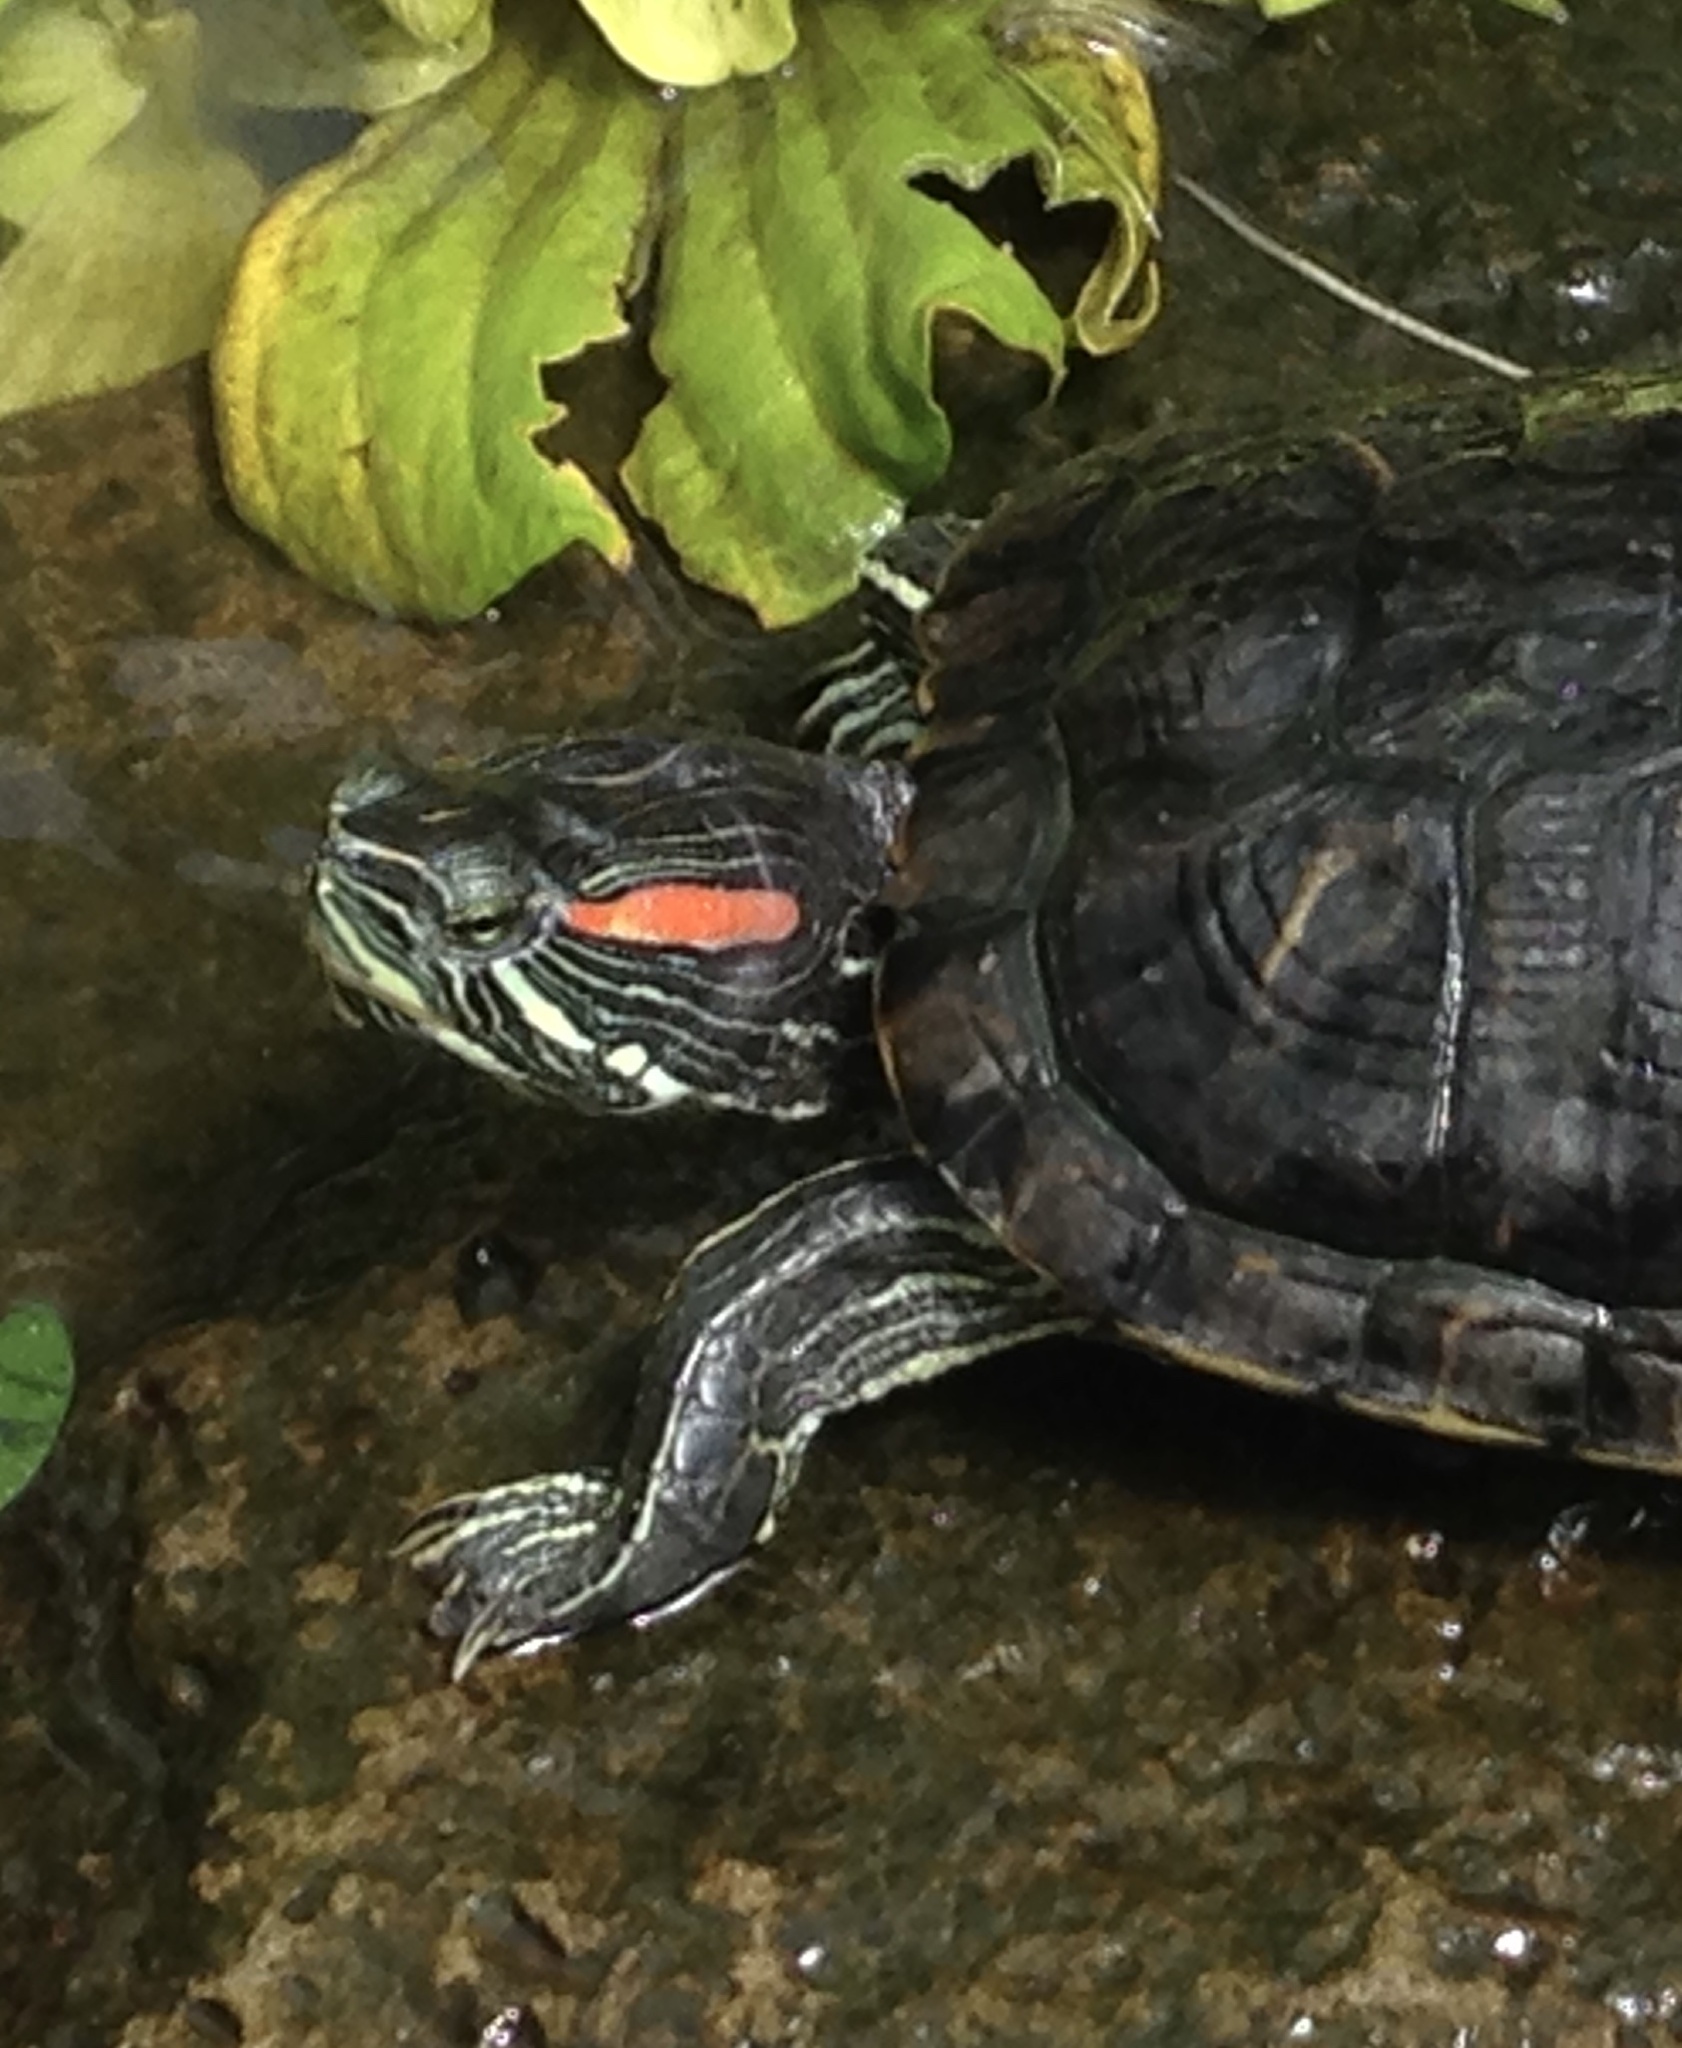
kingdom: Animalia
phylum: Chordata
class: Testudines
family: Emydidae
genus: Trachemys
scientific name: Trachemys scripta
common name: Slider
